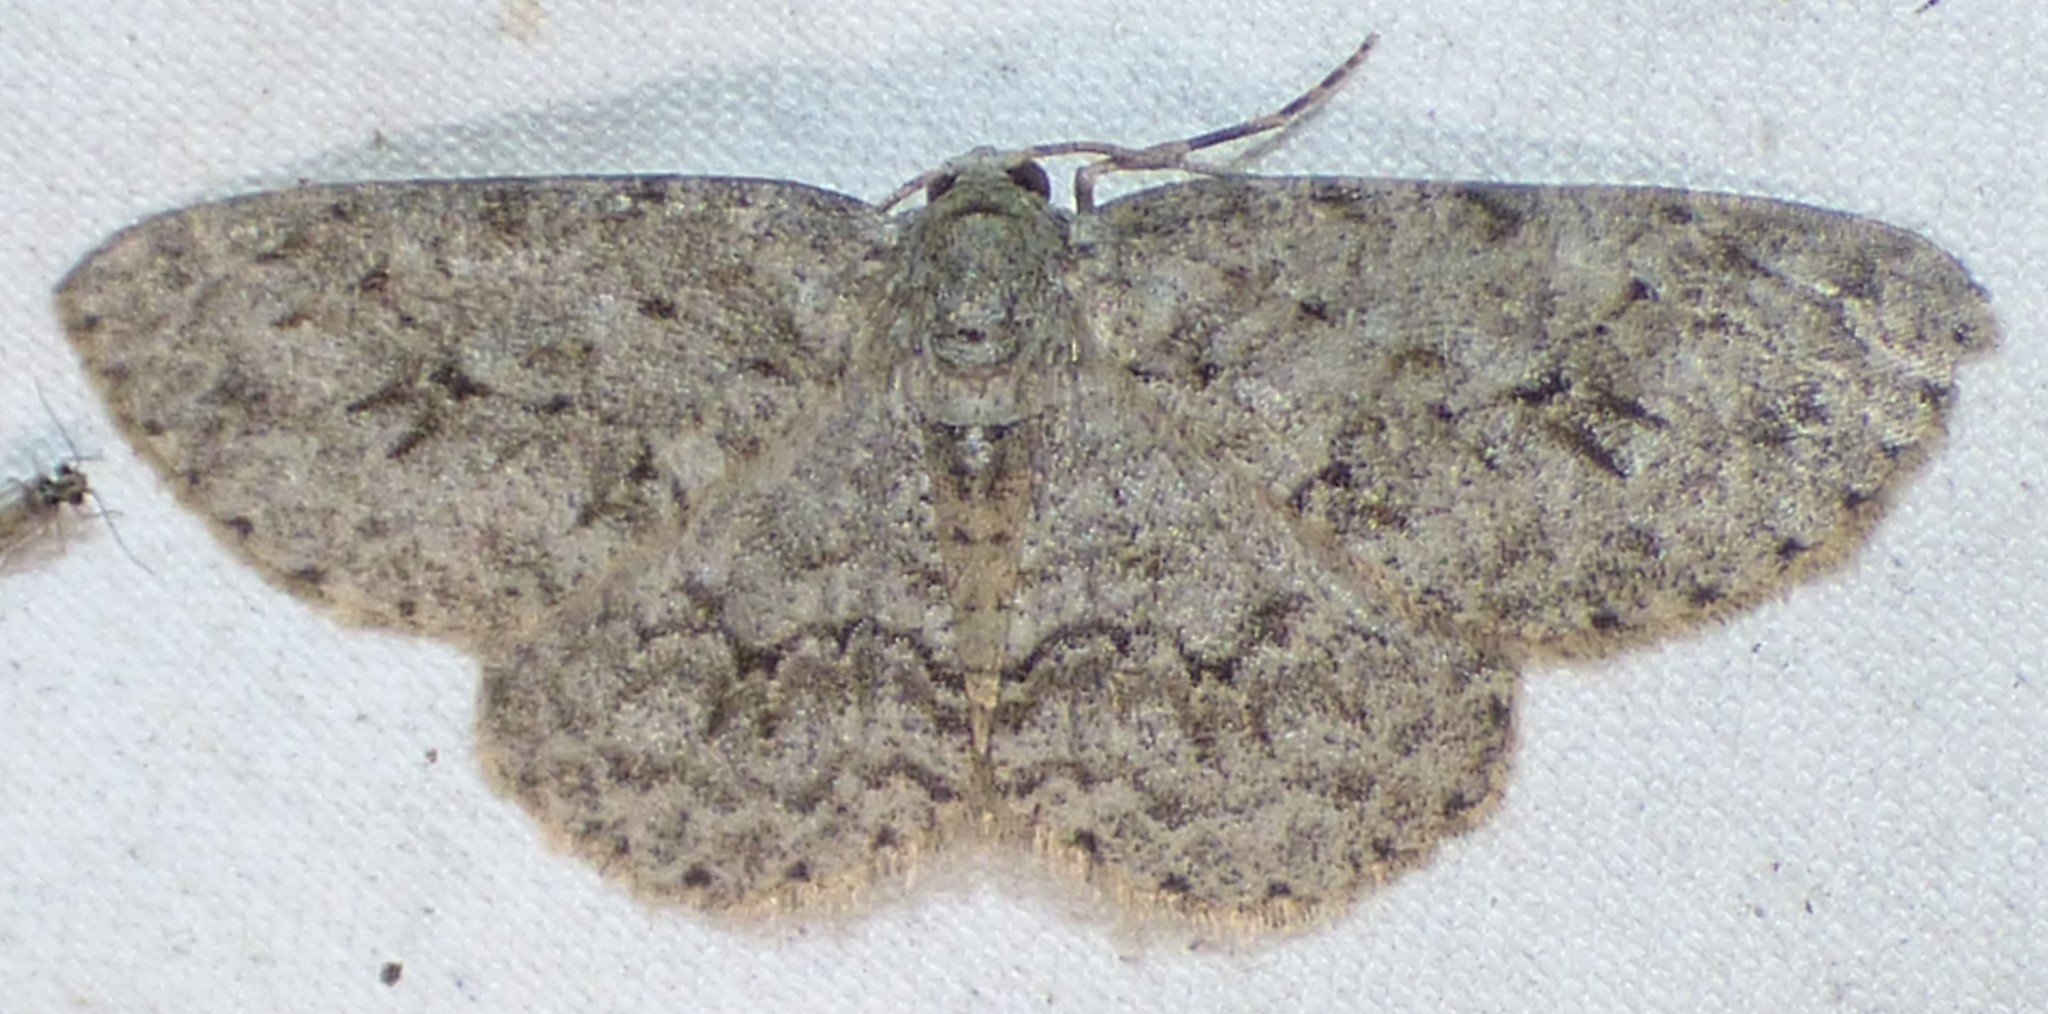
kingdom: Animalia
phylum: Arthropoda
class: Insecta
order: Lepidoptera
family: Geometridae
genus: Ectropis
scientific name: Ectropis crepuscularia
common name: Engrailed
